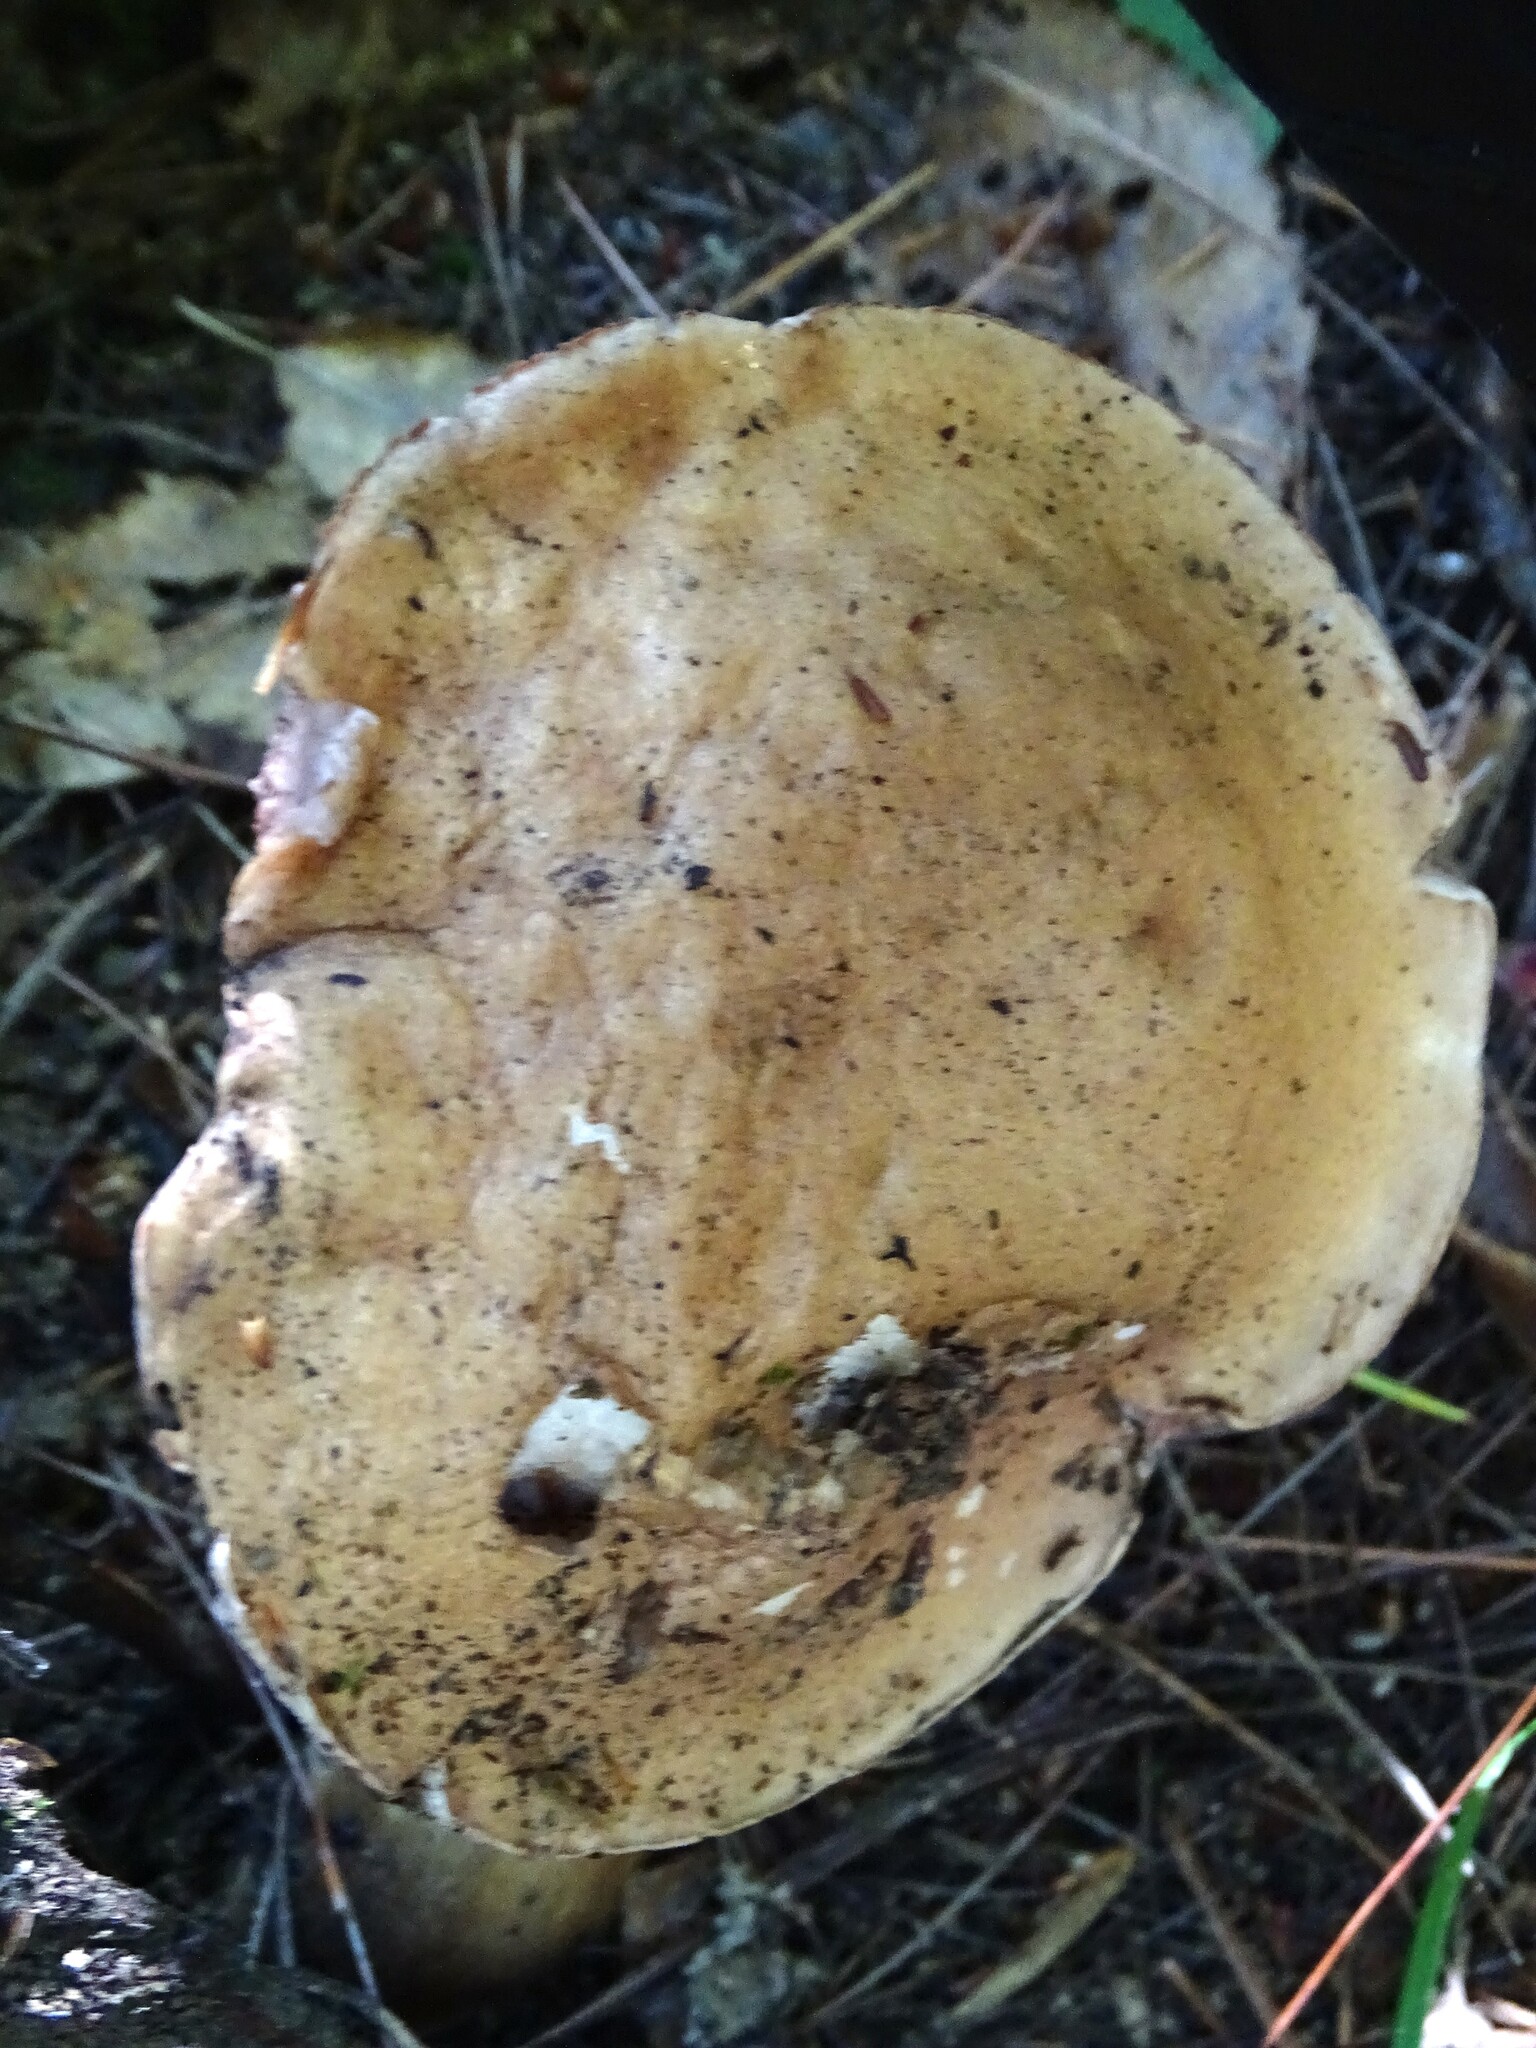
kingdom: Fungi
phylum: Basidiomycota
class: Agaricomycetes
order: Boletales
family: Boletaceae
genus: Tylopilus
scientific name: Tylopilus felleus
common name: Bitter bolete
